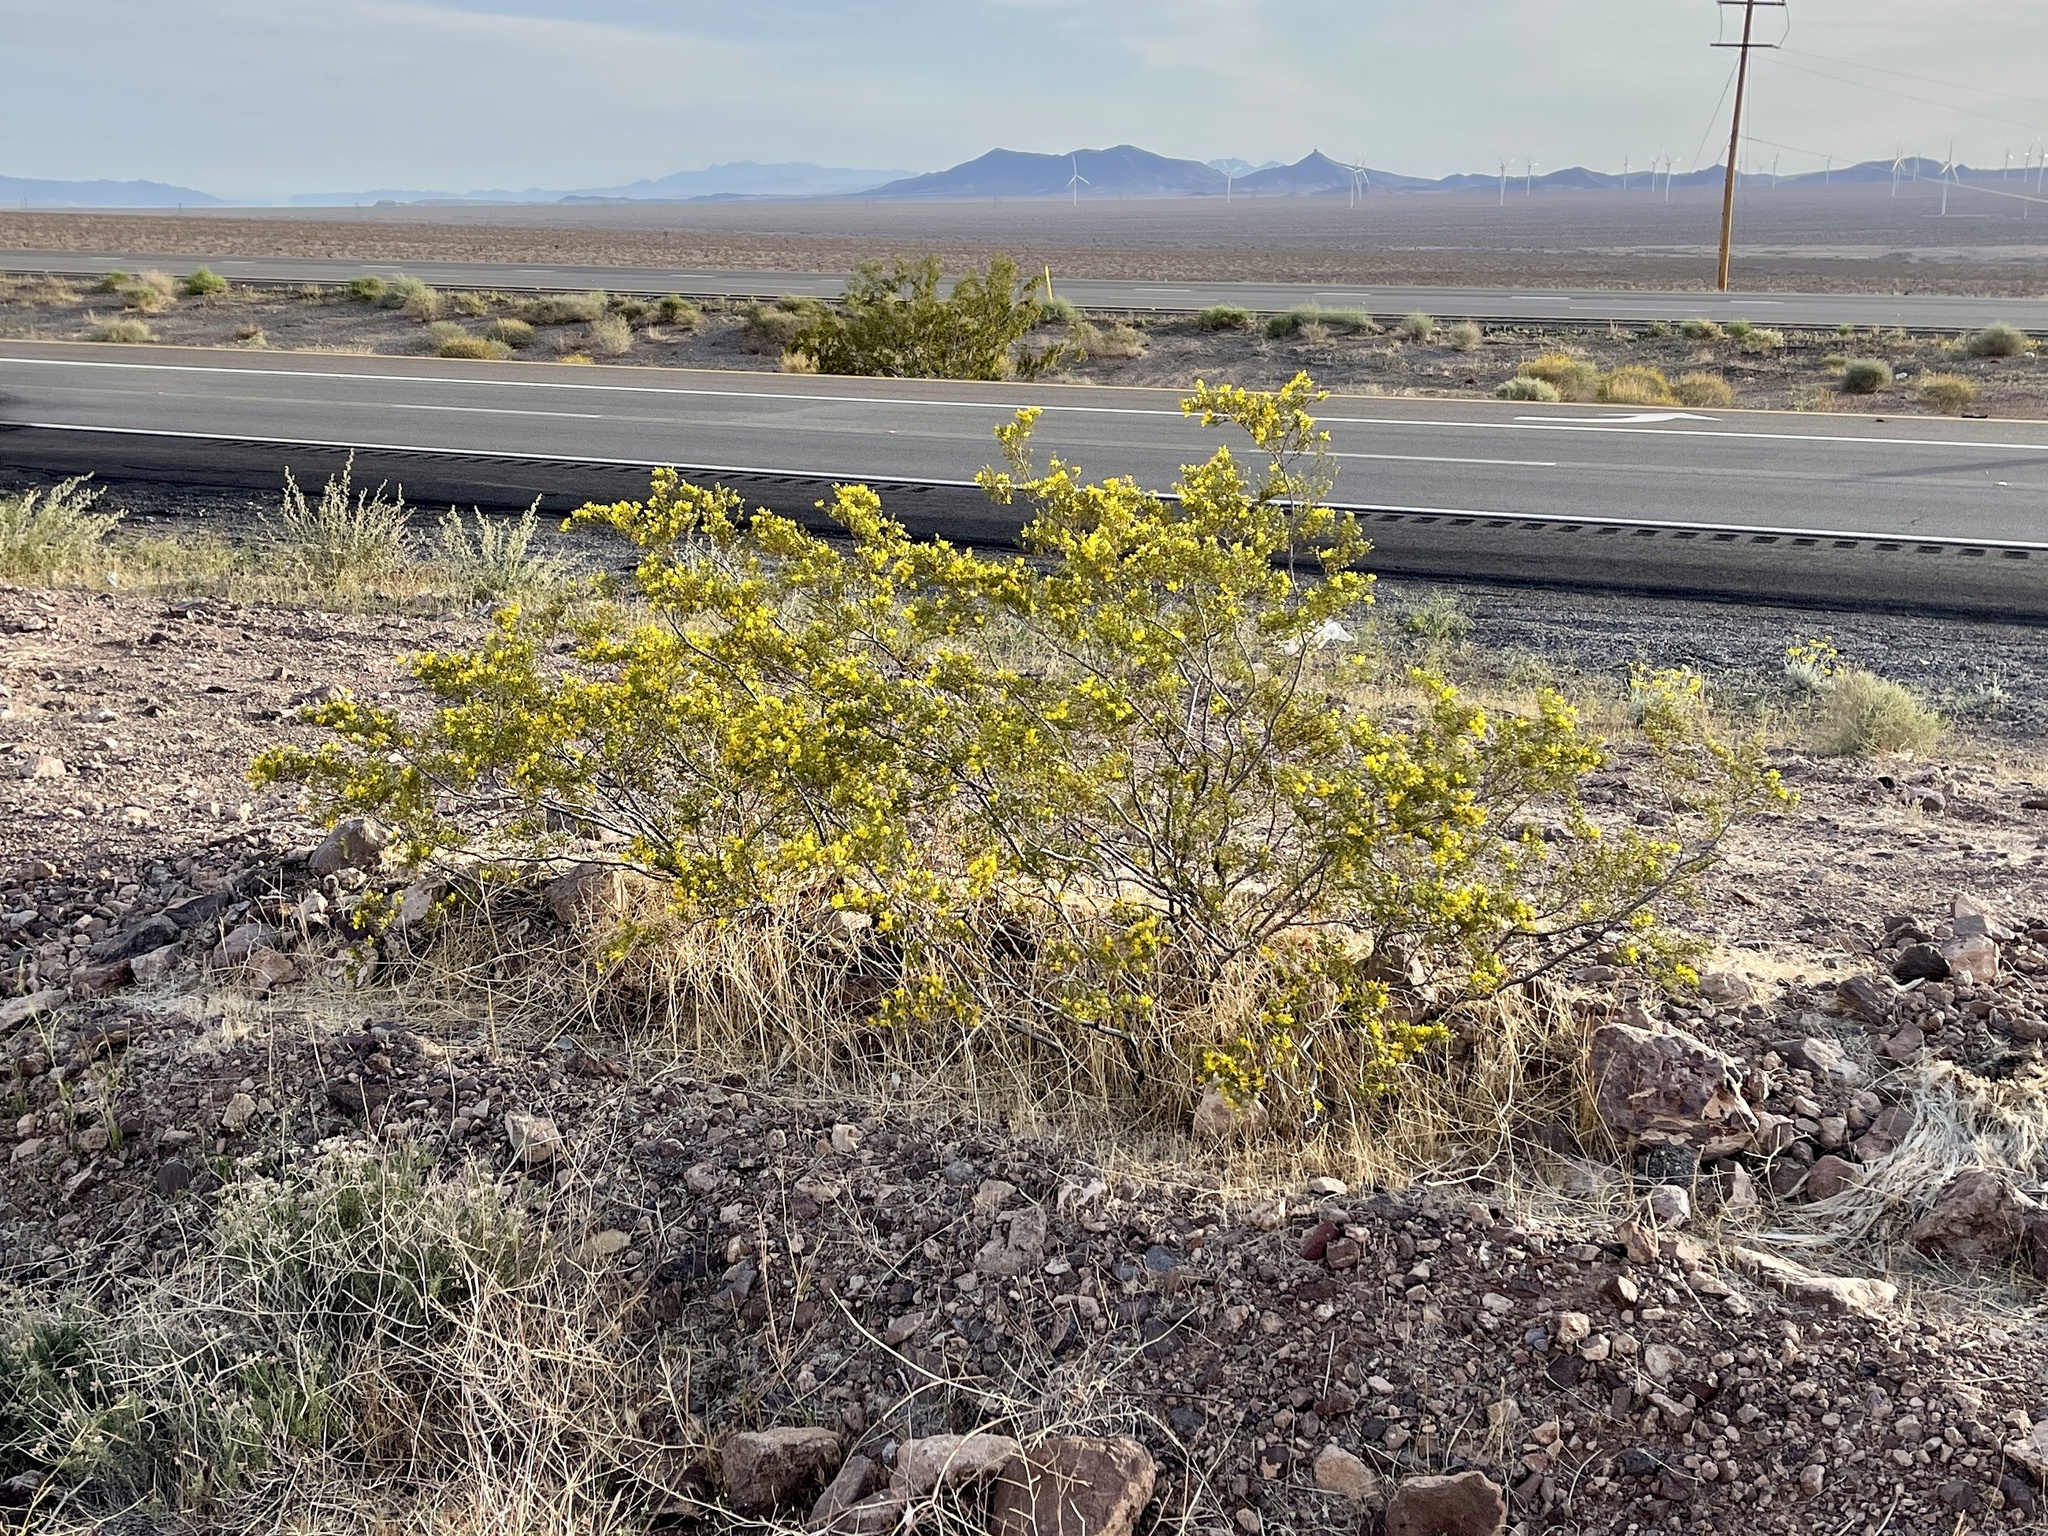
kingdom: Plantae
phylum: Tracheophyta
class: Magnoliopsida
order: Zygophyllales
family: Zygophyllaceae
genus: Larrea
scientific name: Larrea tridentata
